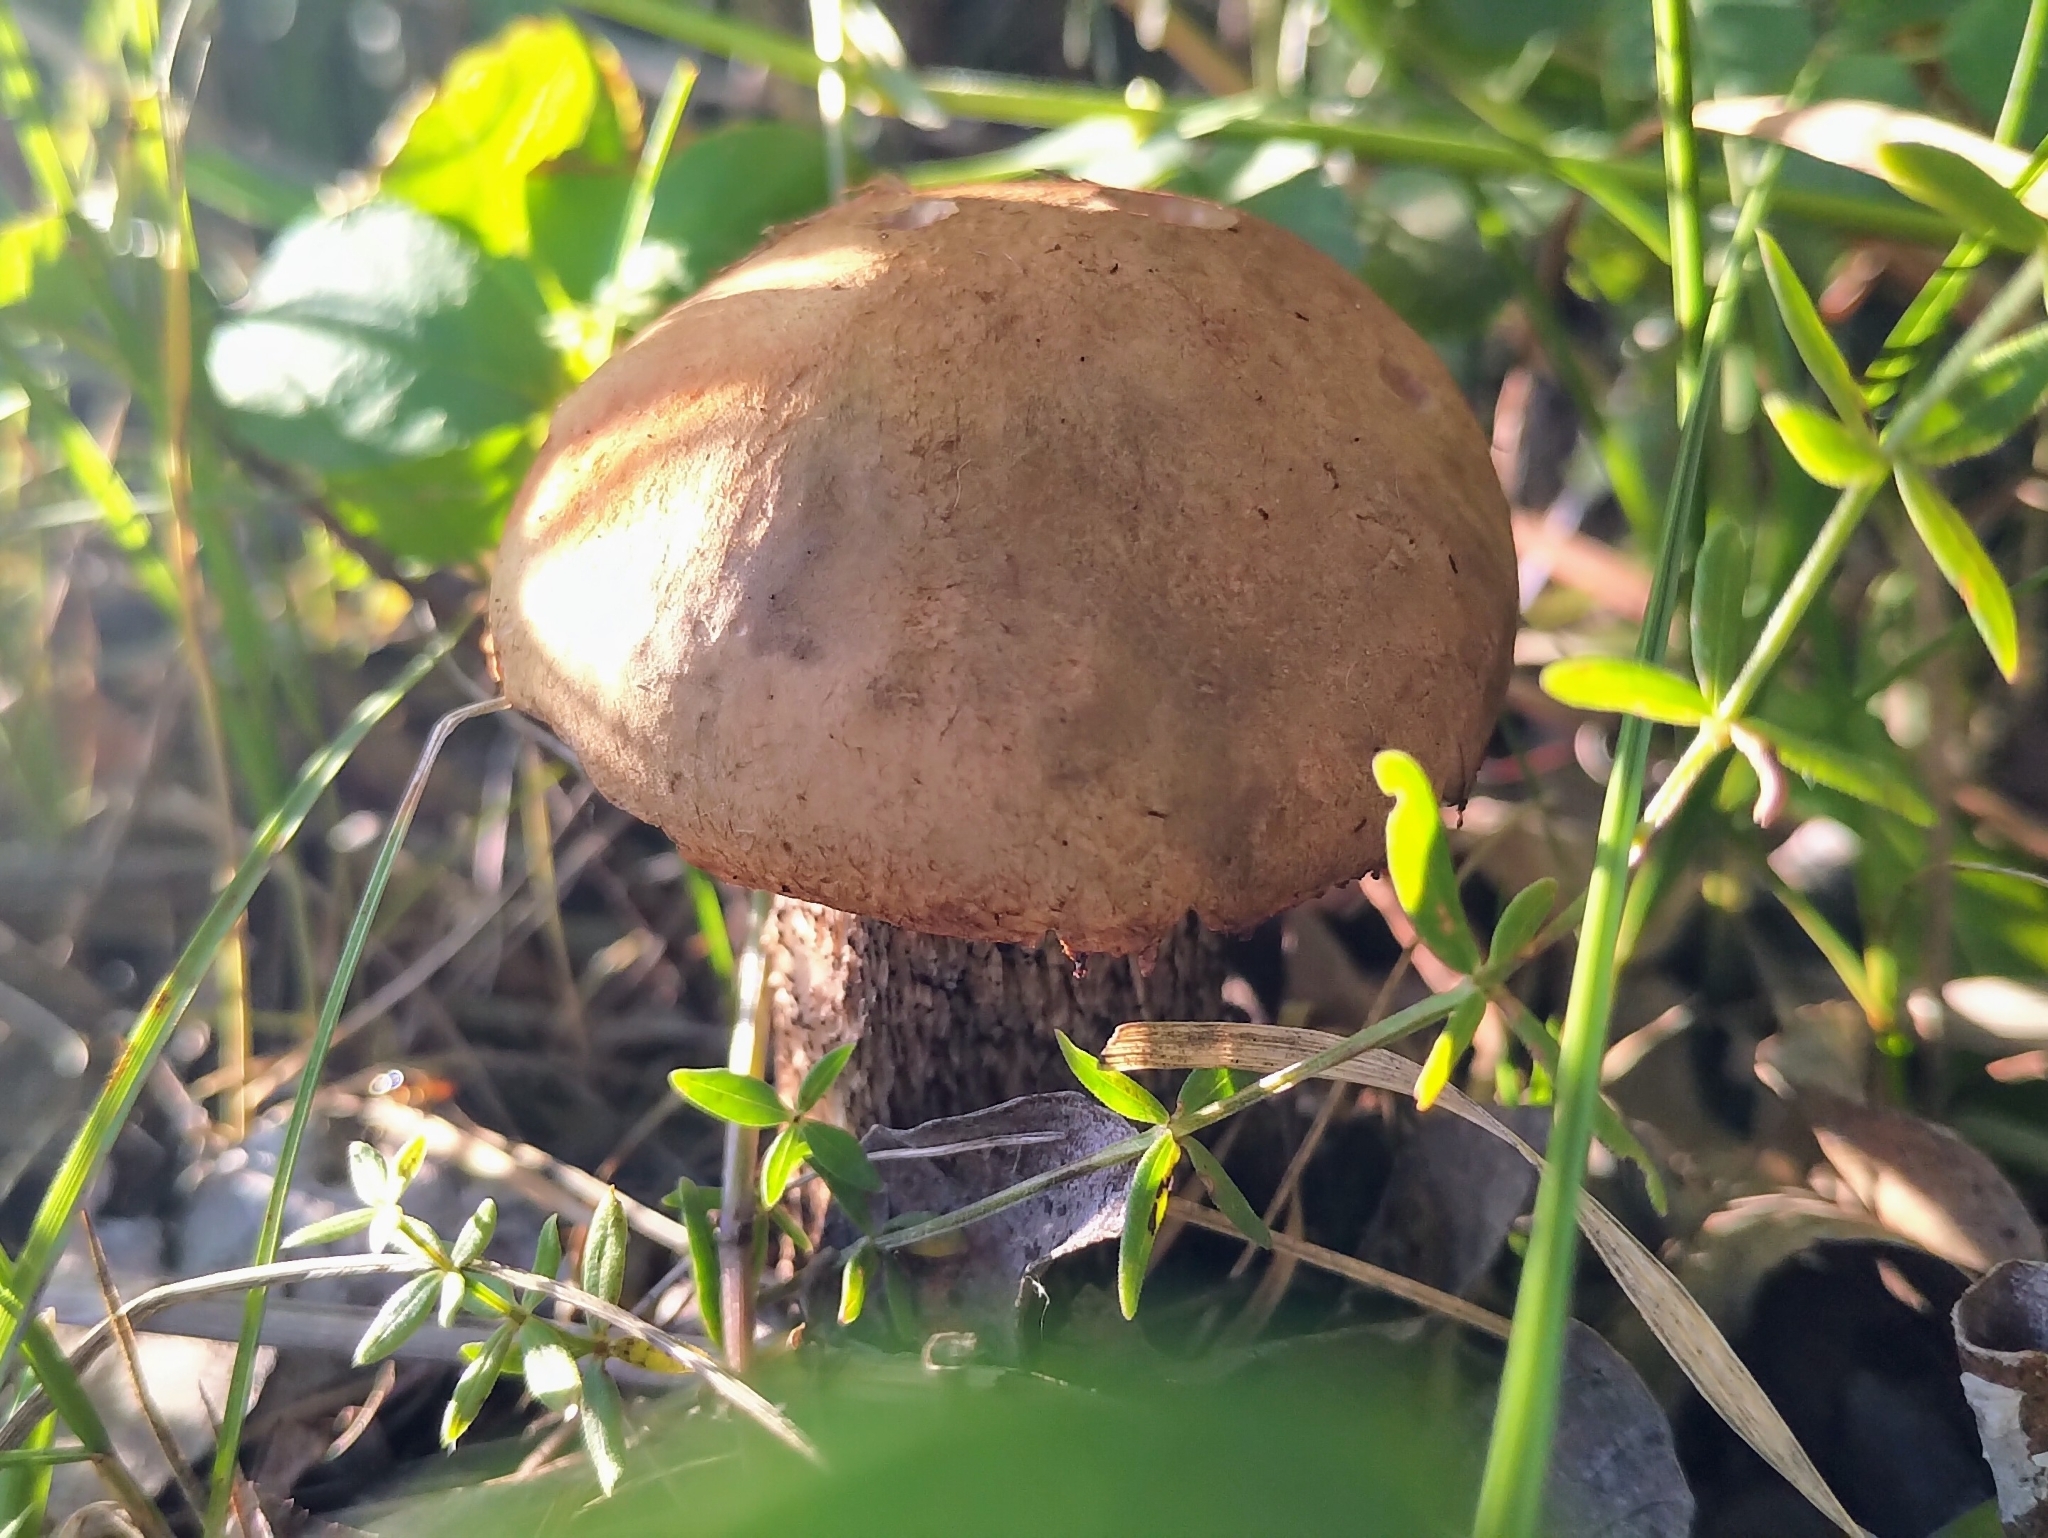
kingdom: Fungi
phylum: Basidiomycota
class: Agaricomycetes
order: Boletales
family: Boletaceae
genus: Leccinum
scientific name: Leccinum insigne
